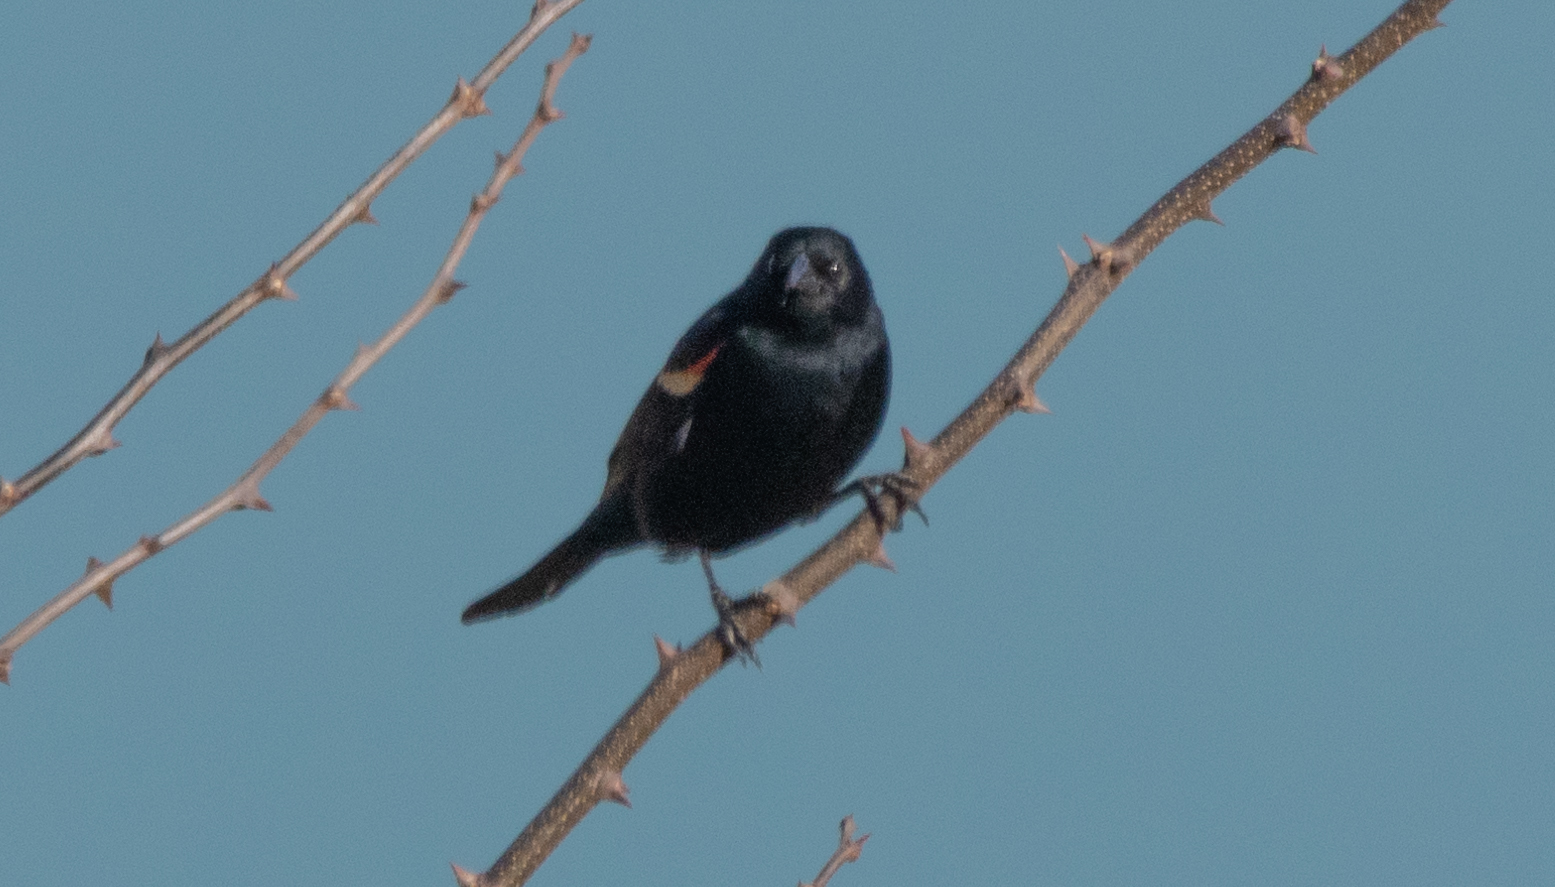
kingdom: Animalia
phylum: Chordata
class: Aves
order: Passeriformes
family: Icteridae
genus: Agelaius
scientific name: Agelaius phoeniceus
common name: Red-winged blackbird
